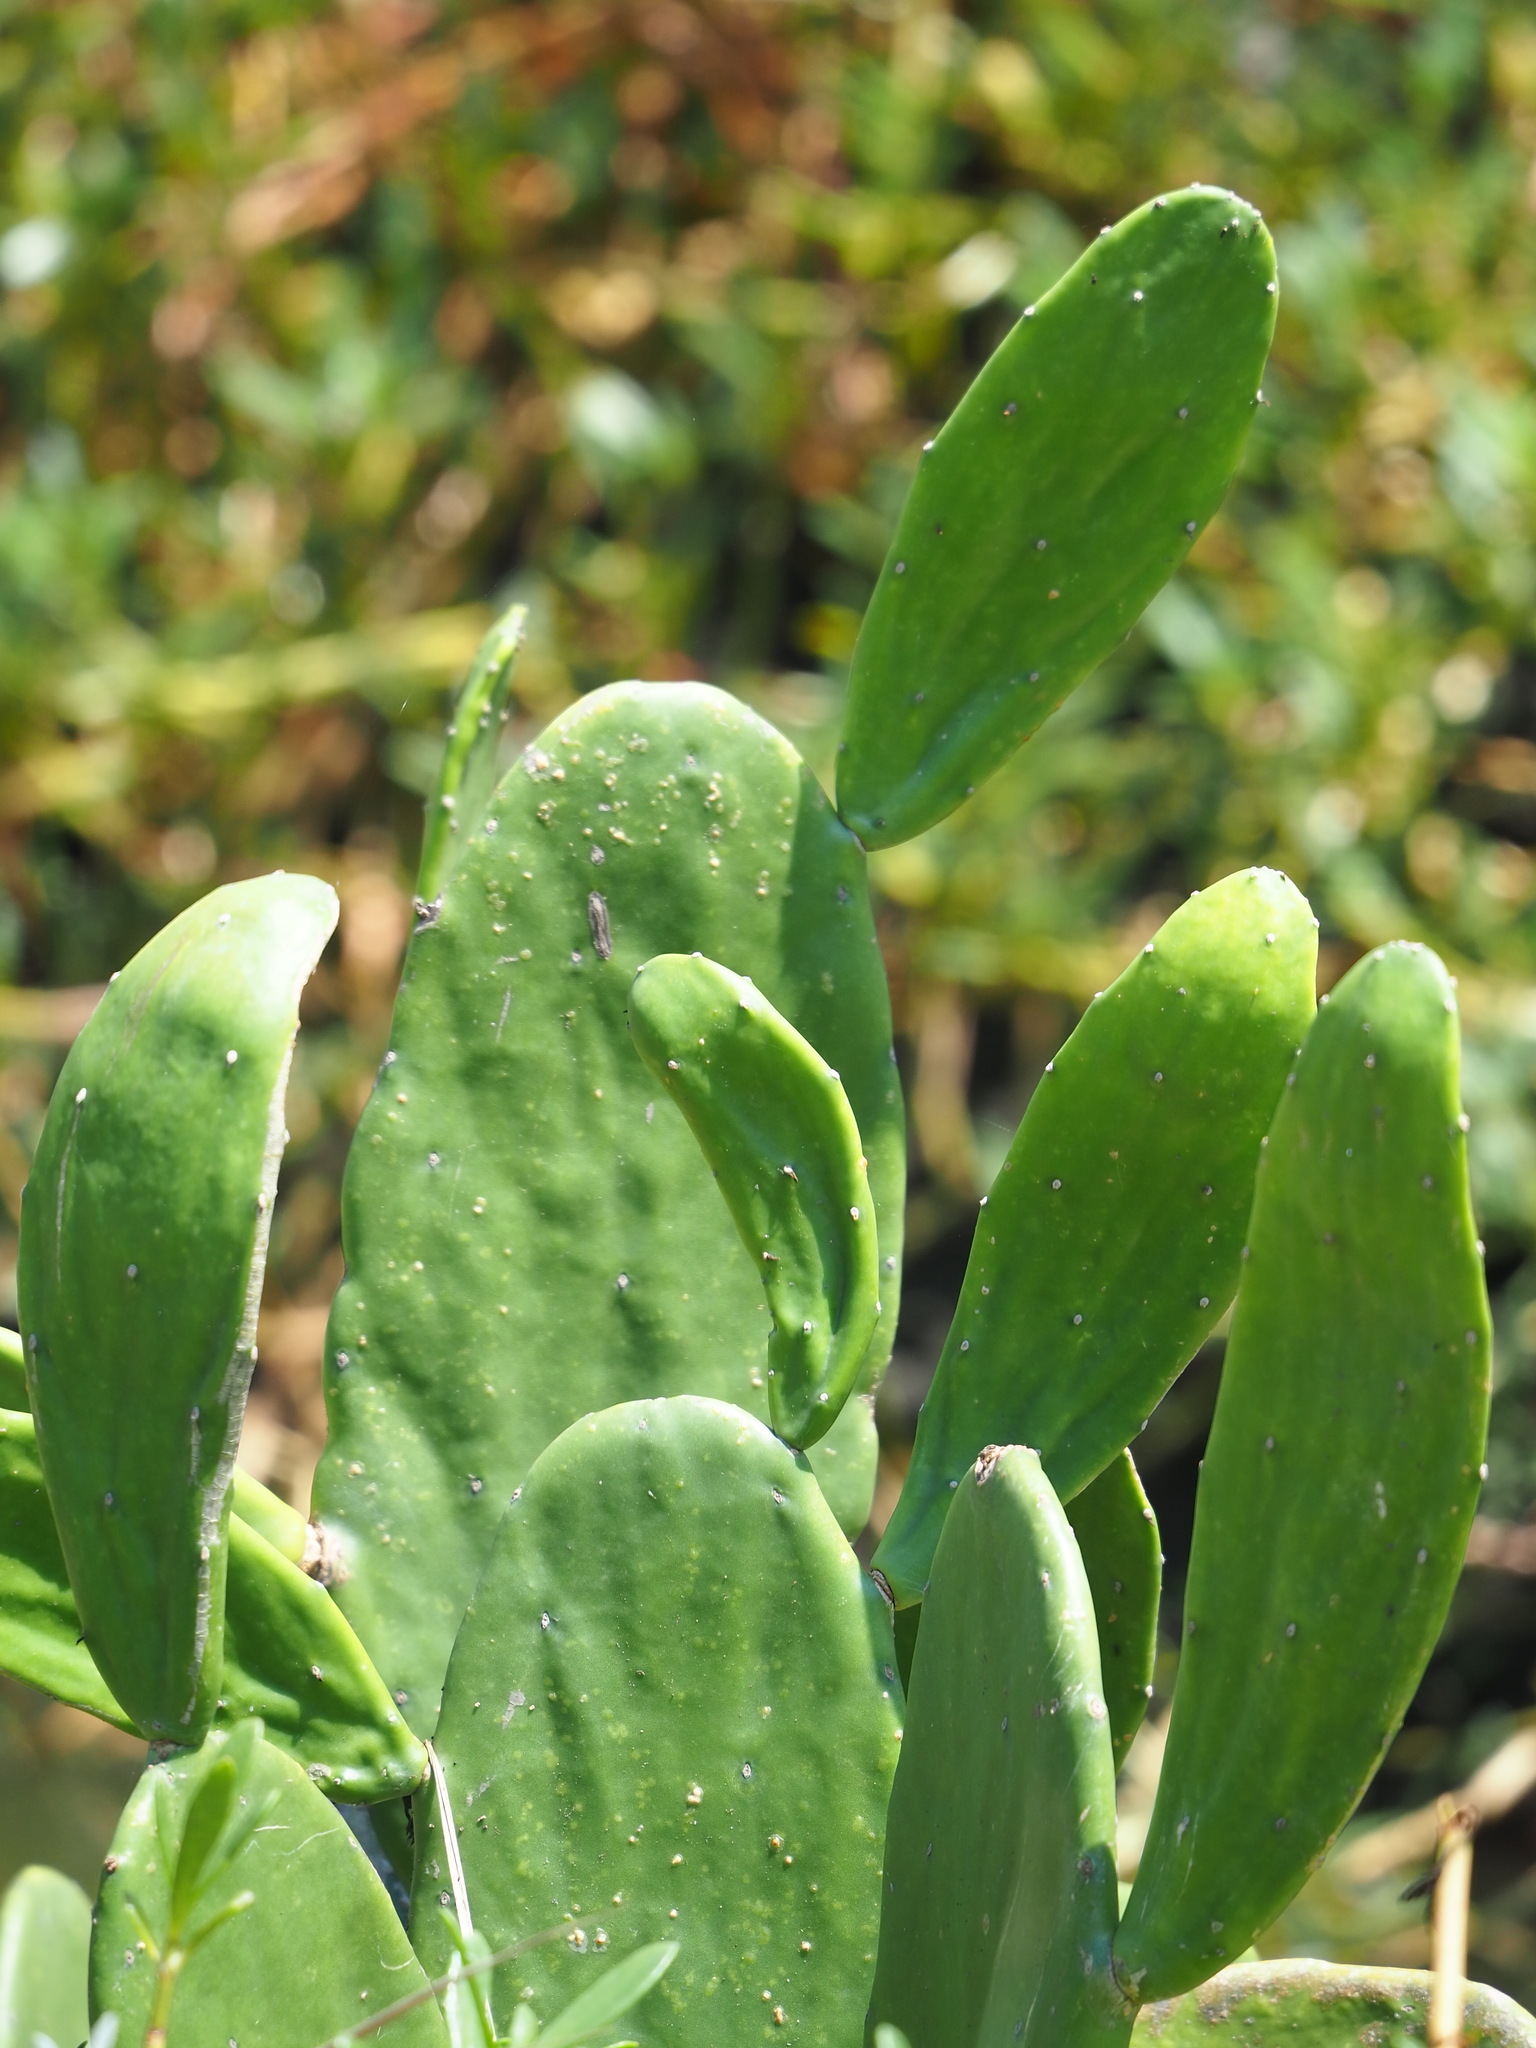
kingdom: Plantae
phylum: Tracheophyta
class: Magnoliopsida
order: Caryophyllales
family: Cactaceae
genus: Opuntia
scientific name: Opuntia cochenillifera
